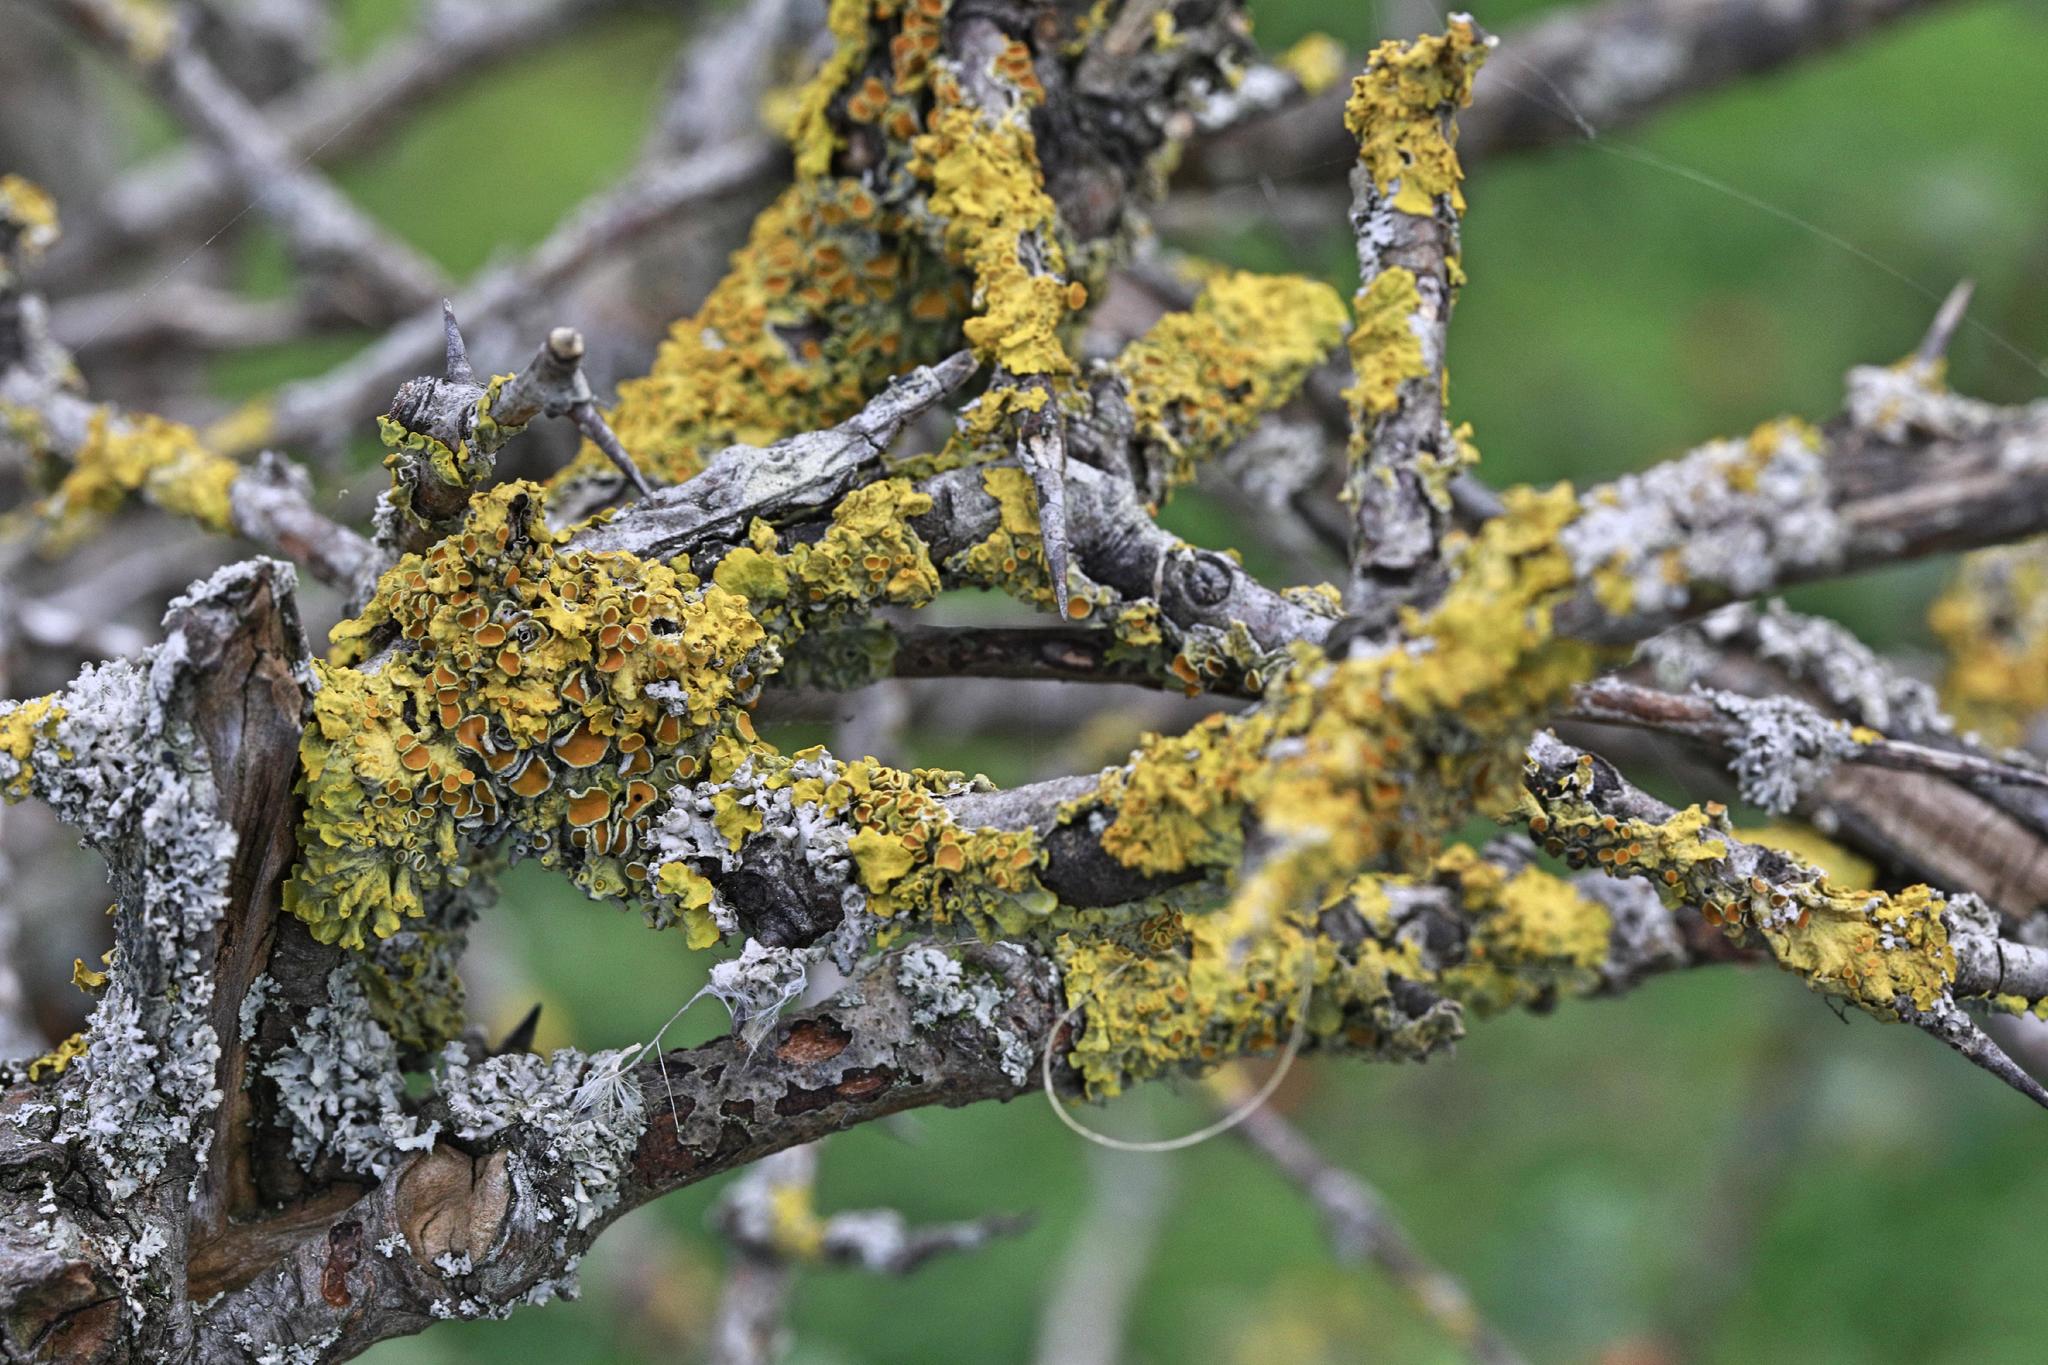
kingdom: Fungi
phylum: Ascomycota
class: Lecanoromycetes
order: Teloschistales
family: Teloschistaceae
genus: Xanthoria
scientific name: Xanthoria parietina
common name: Common orange lichen
